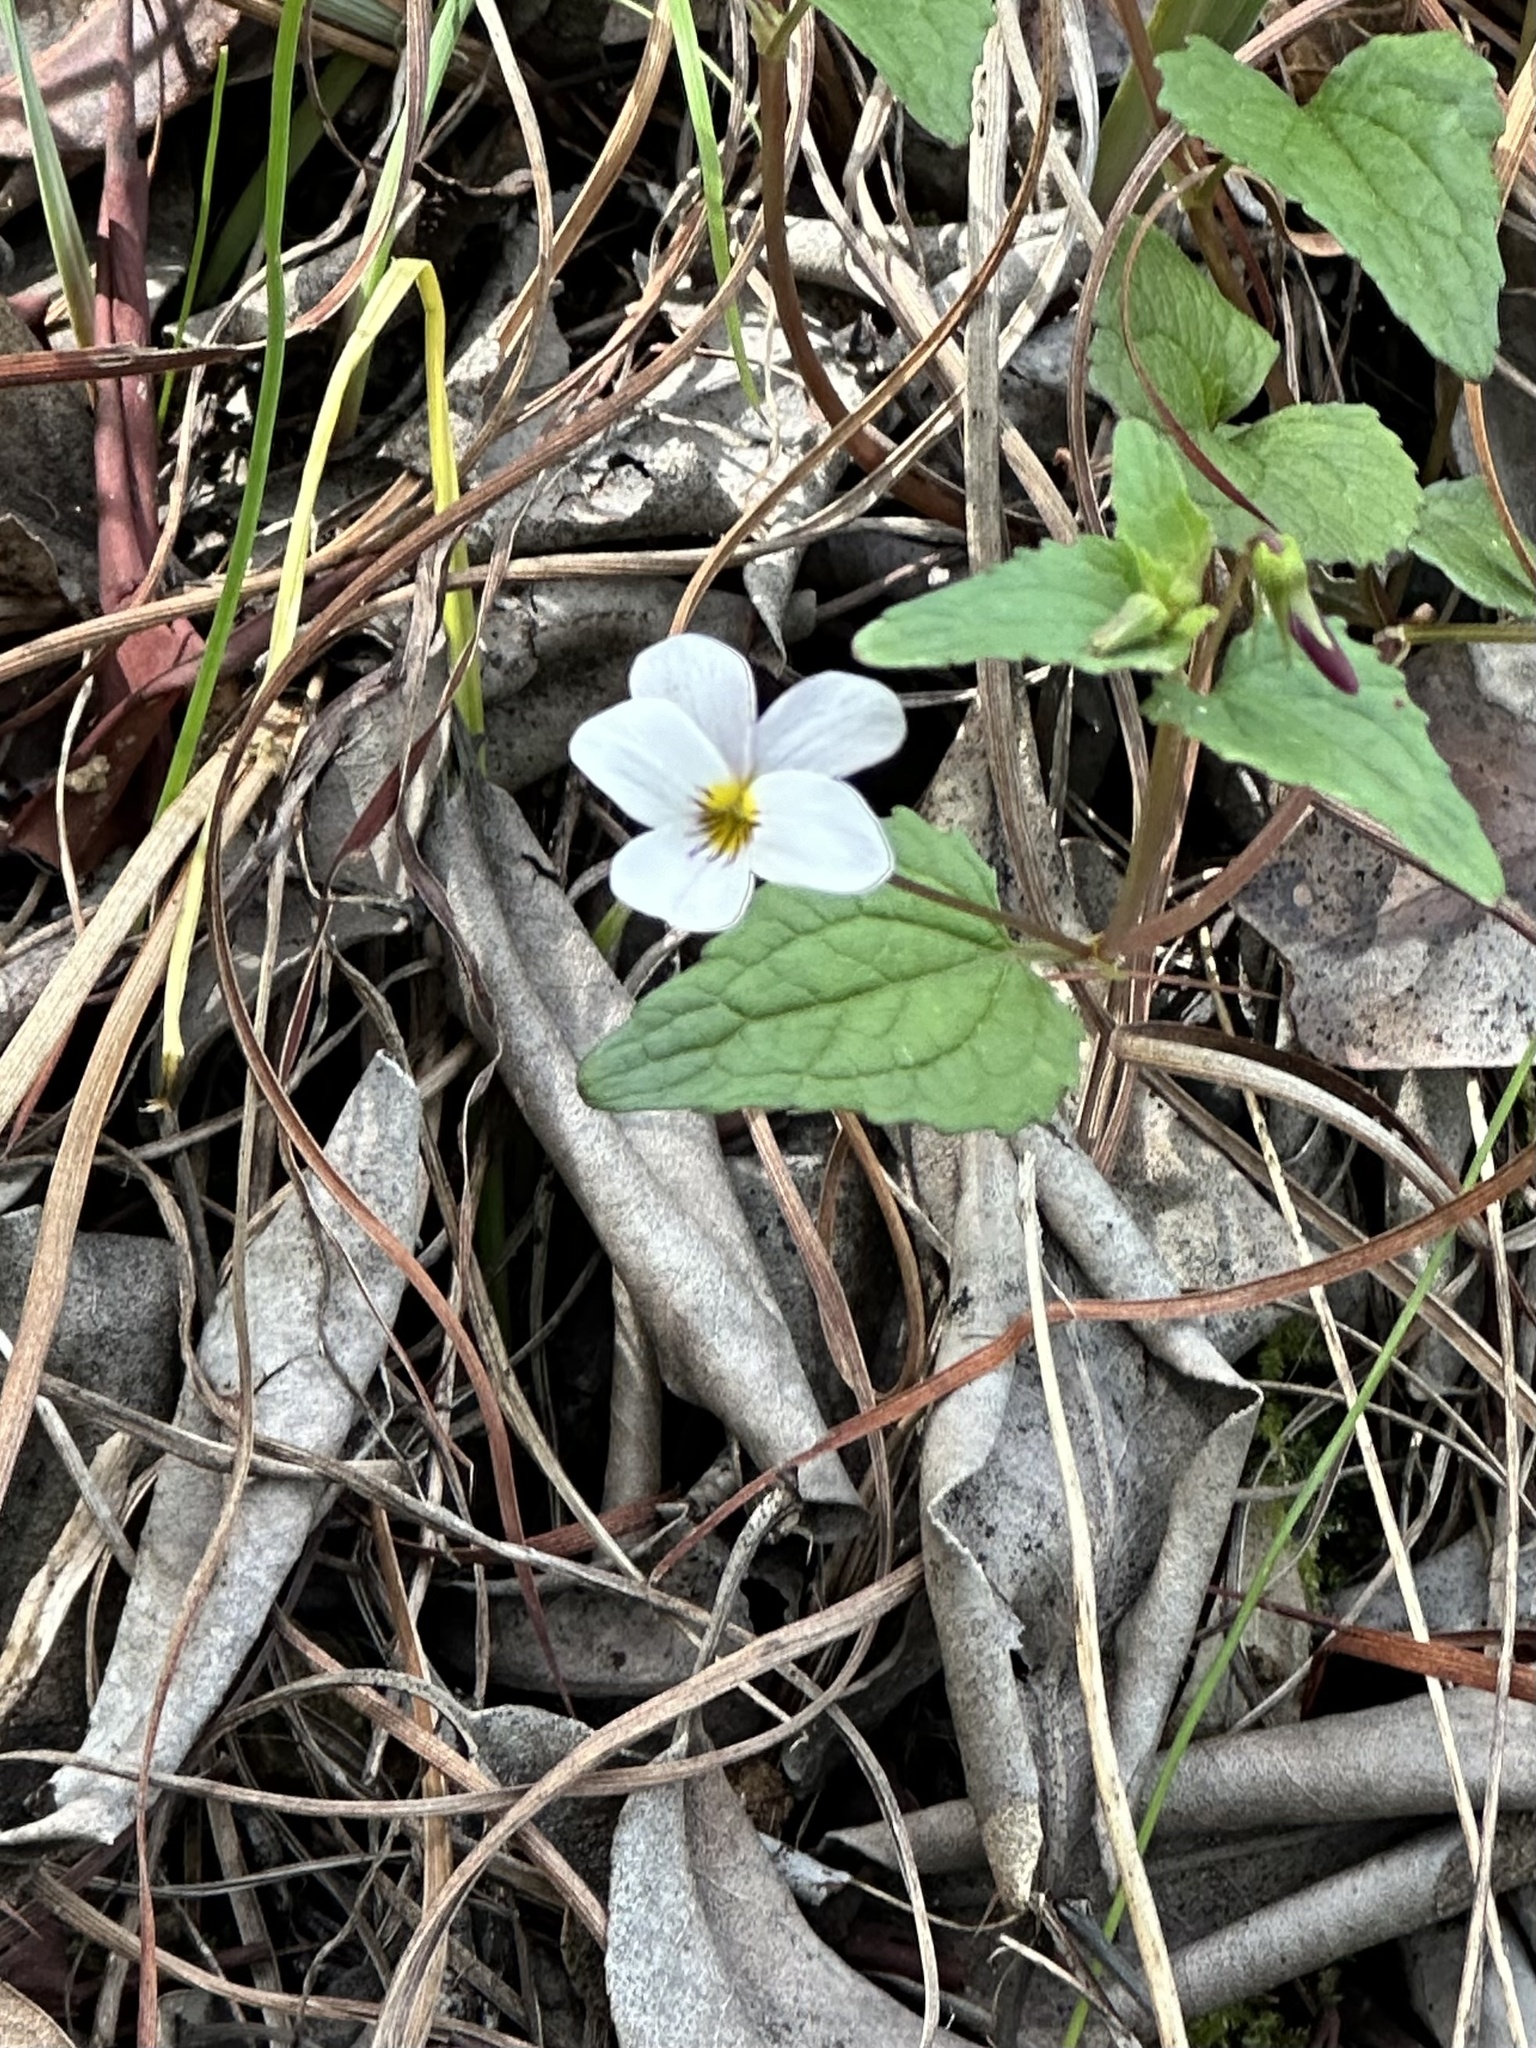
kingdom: Plantae
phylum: Tracheophyta
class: Magnoliopsida
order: Malpighiales
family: Violaceae
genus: Viola
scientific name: Viola ocellata
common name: Western heart's ease
